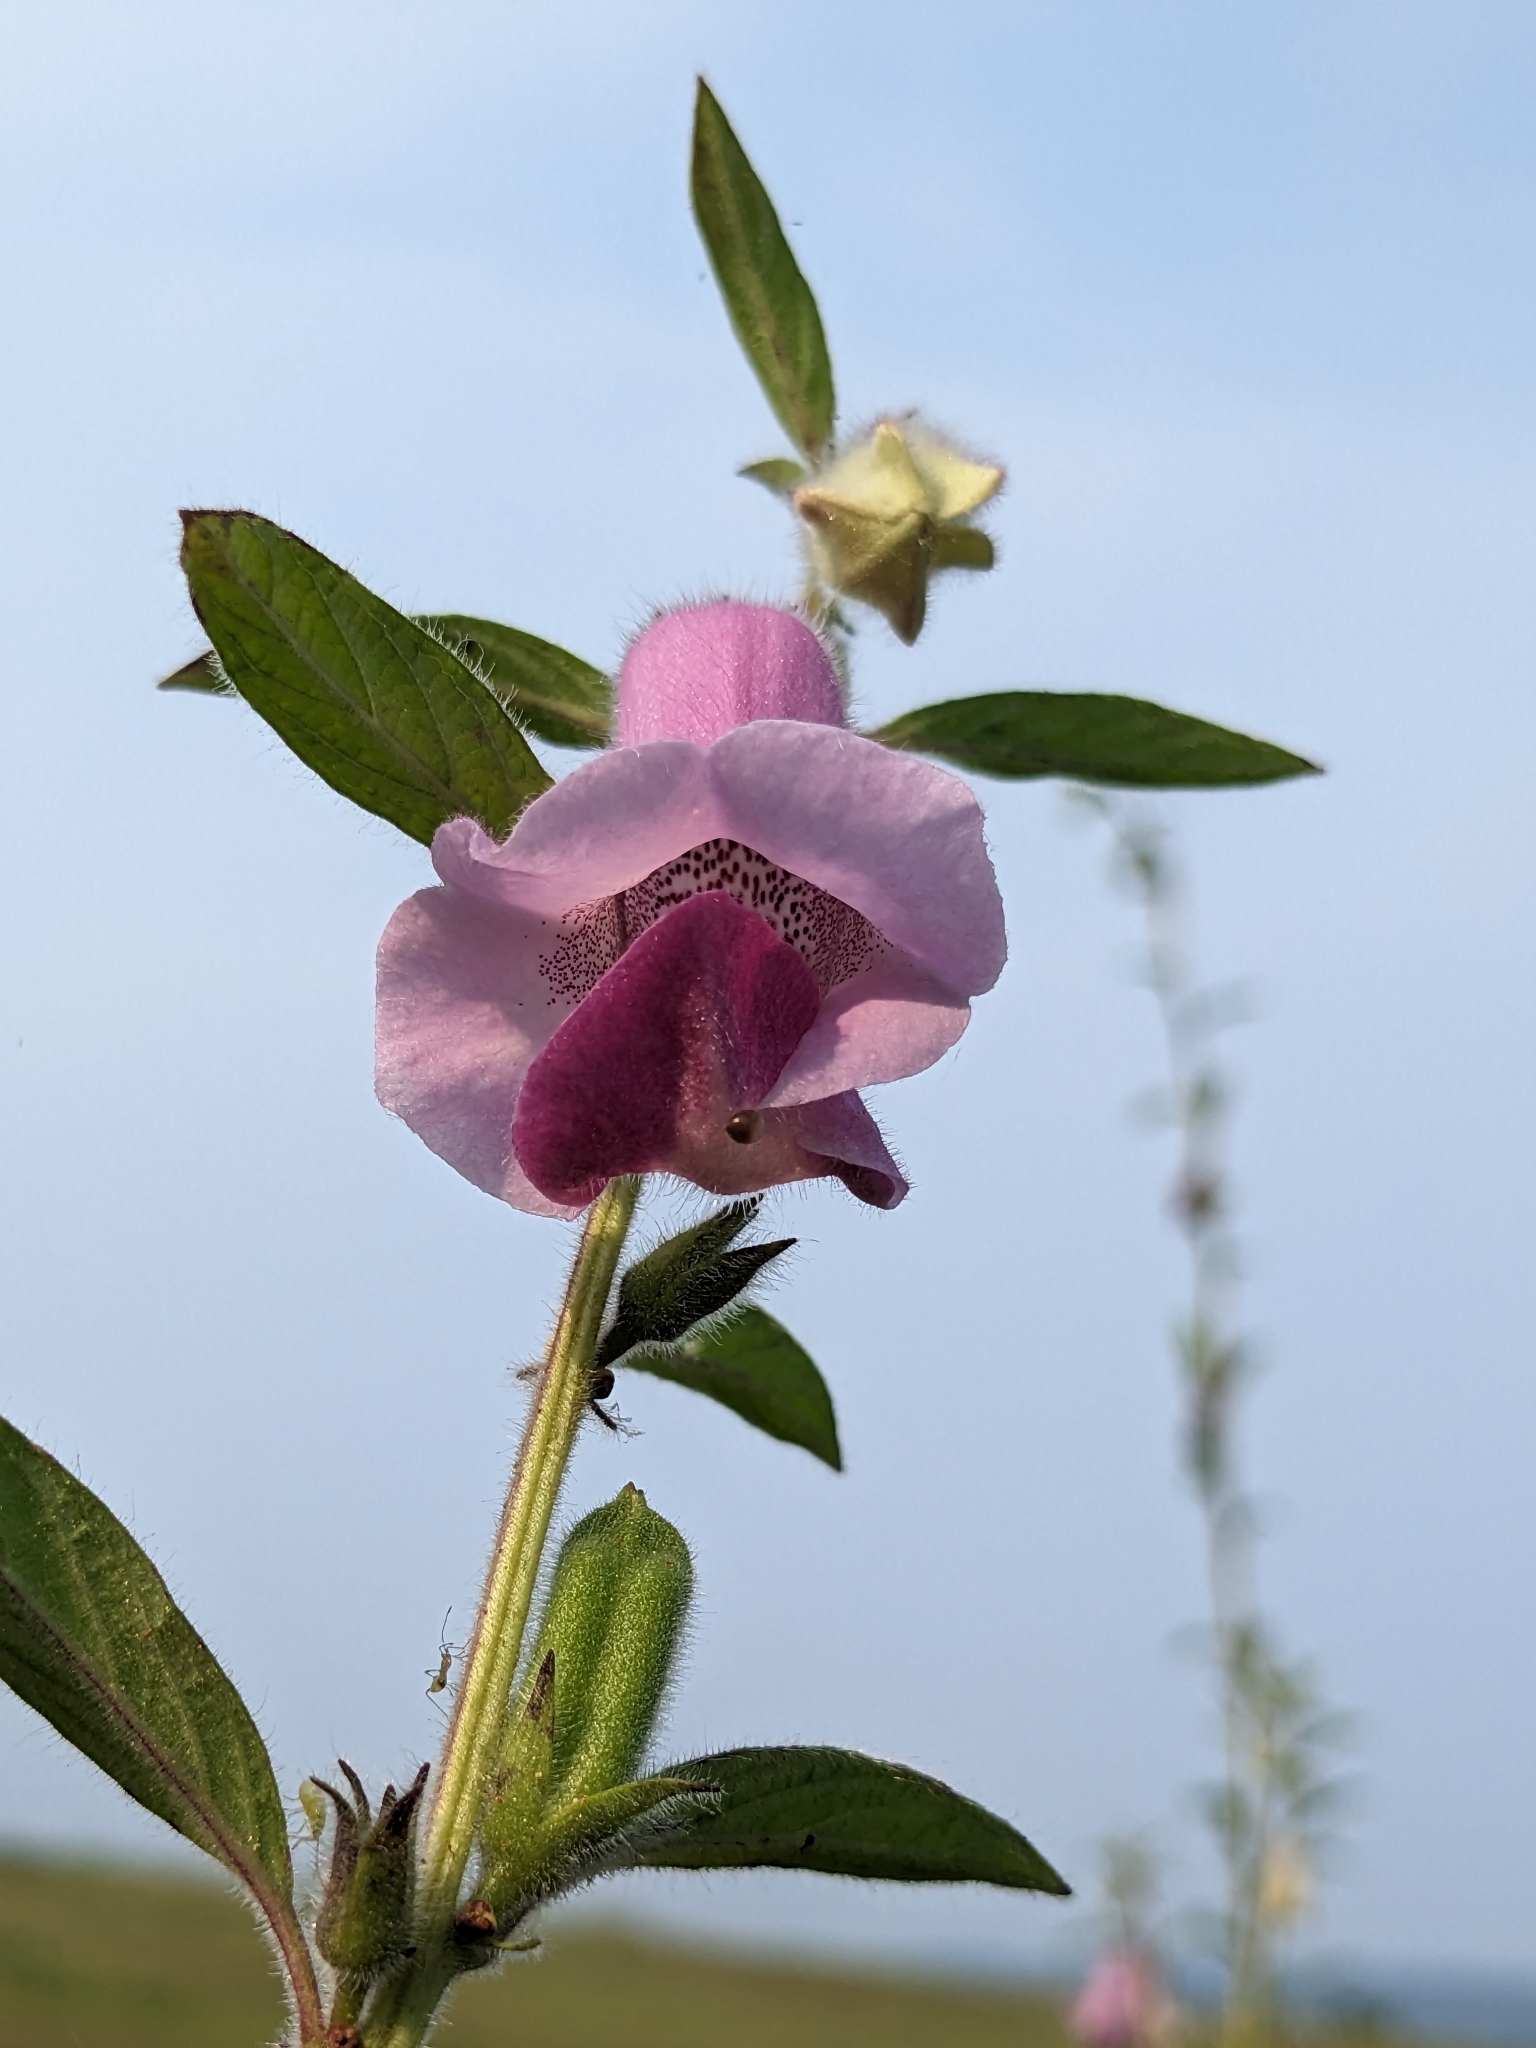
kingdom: Plantae
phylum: Tracheophyta
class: Magnoliopsida
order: Lamiales
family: Pedaliaceae
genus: Sesamum
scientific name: Sesamum indicum
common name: Sesame
